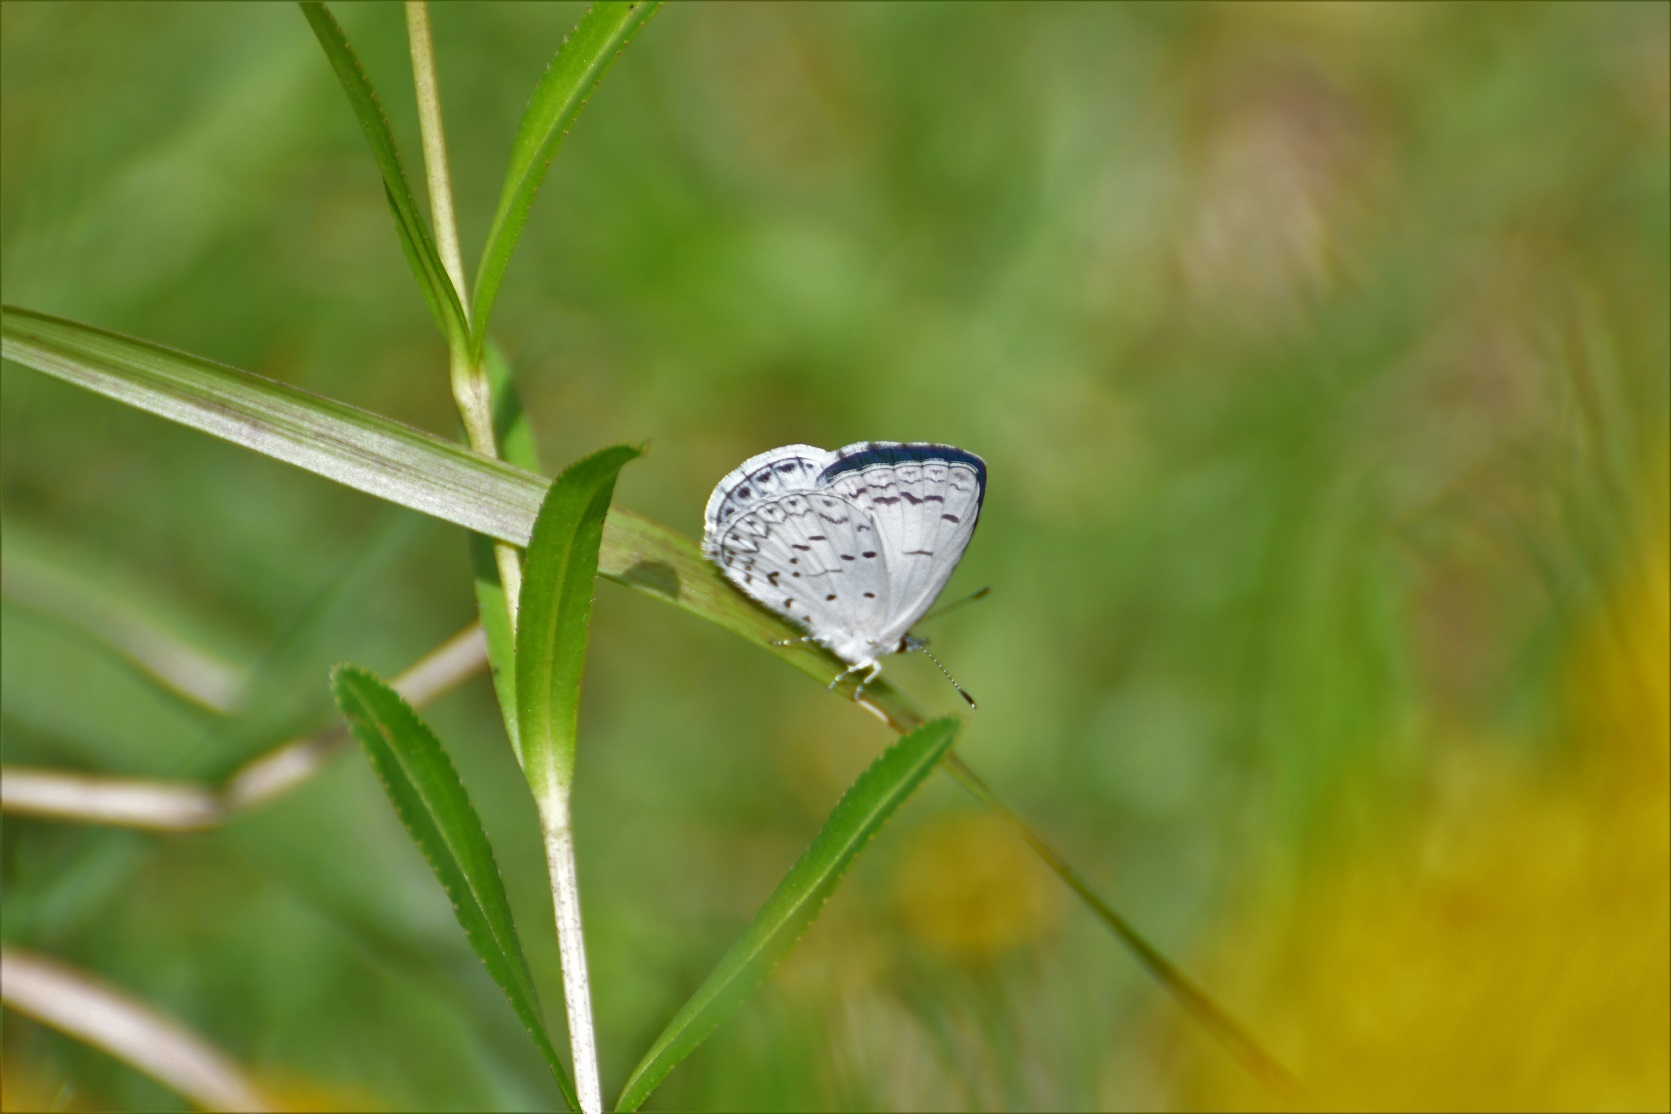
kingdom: Animalia
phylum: Arthropoda
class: Insecta
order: Lepidoptera
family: Lycaenidae
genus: Celastrina
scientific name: Celastrina ladon
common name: Spring azure
